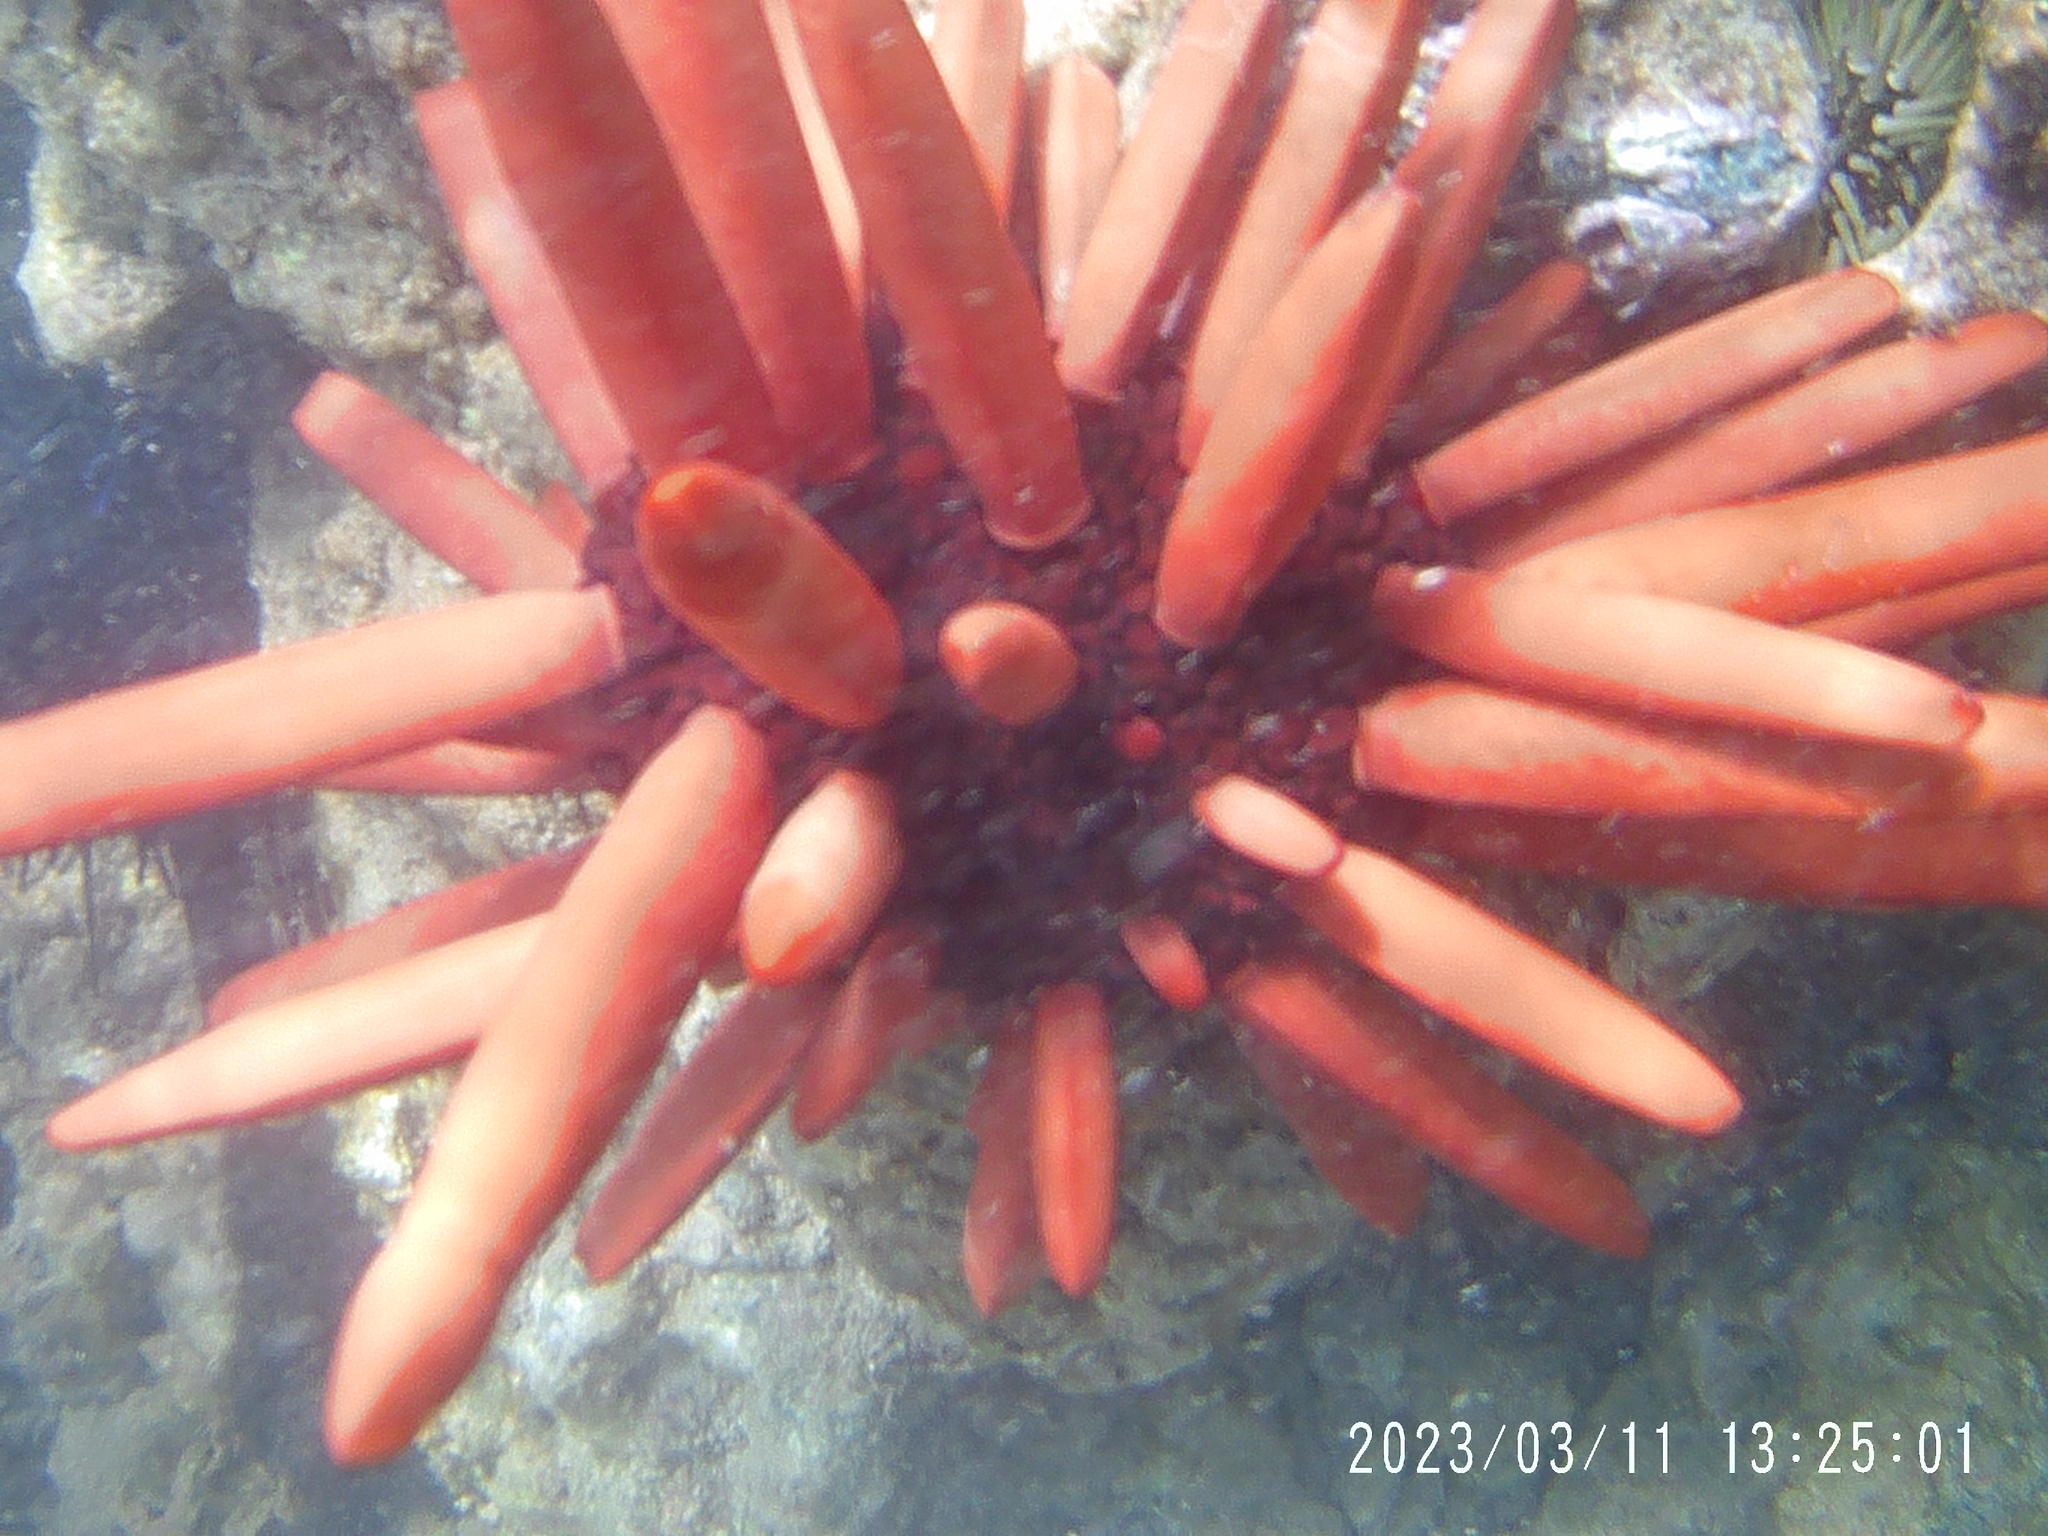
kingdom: Animalia
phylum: Echinodermata
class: Echinoidea
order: Camarodonta
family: Echinometridae
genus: Heterocentrotus
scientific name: Heterocentrotus mamillatus
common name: Slate pencil urchin
